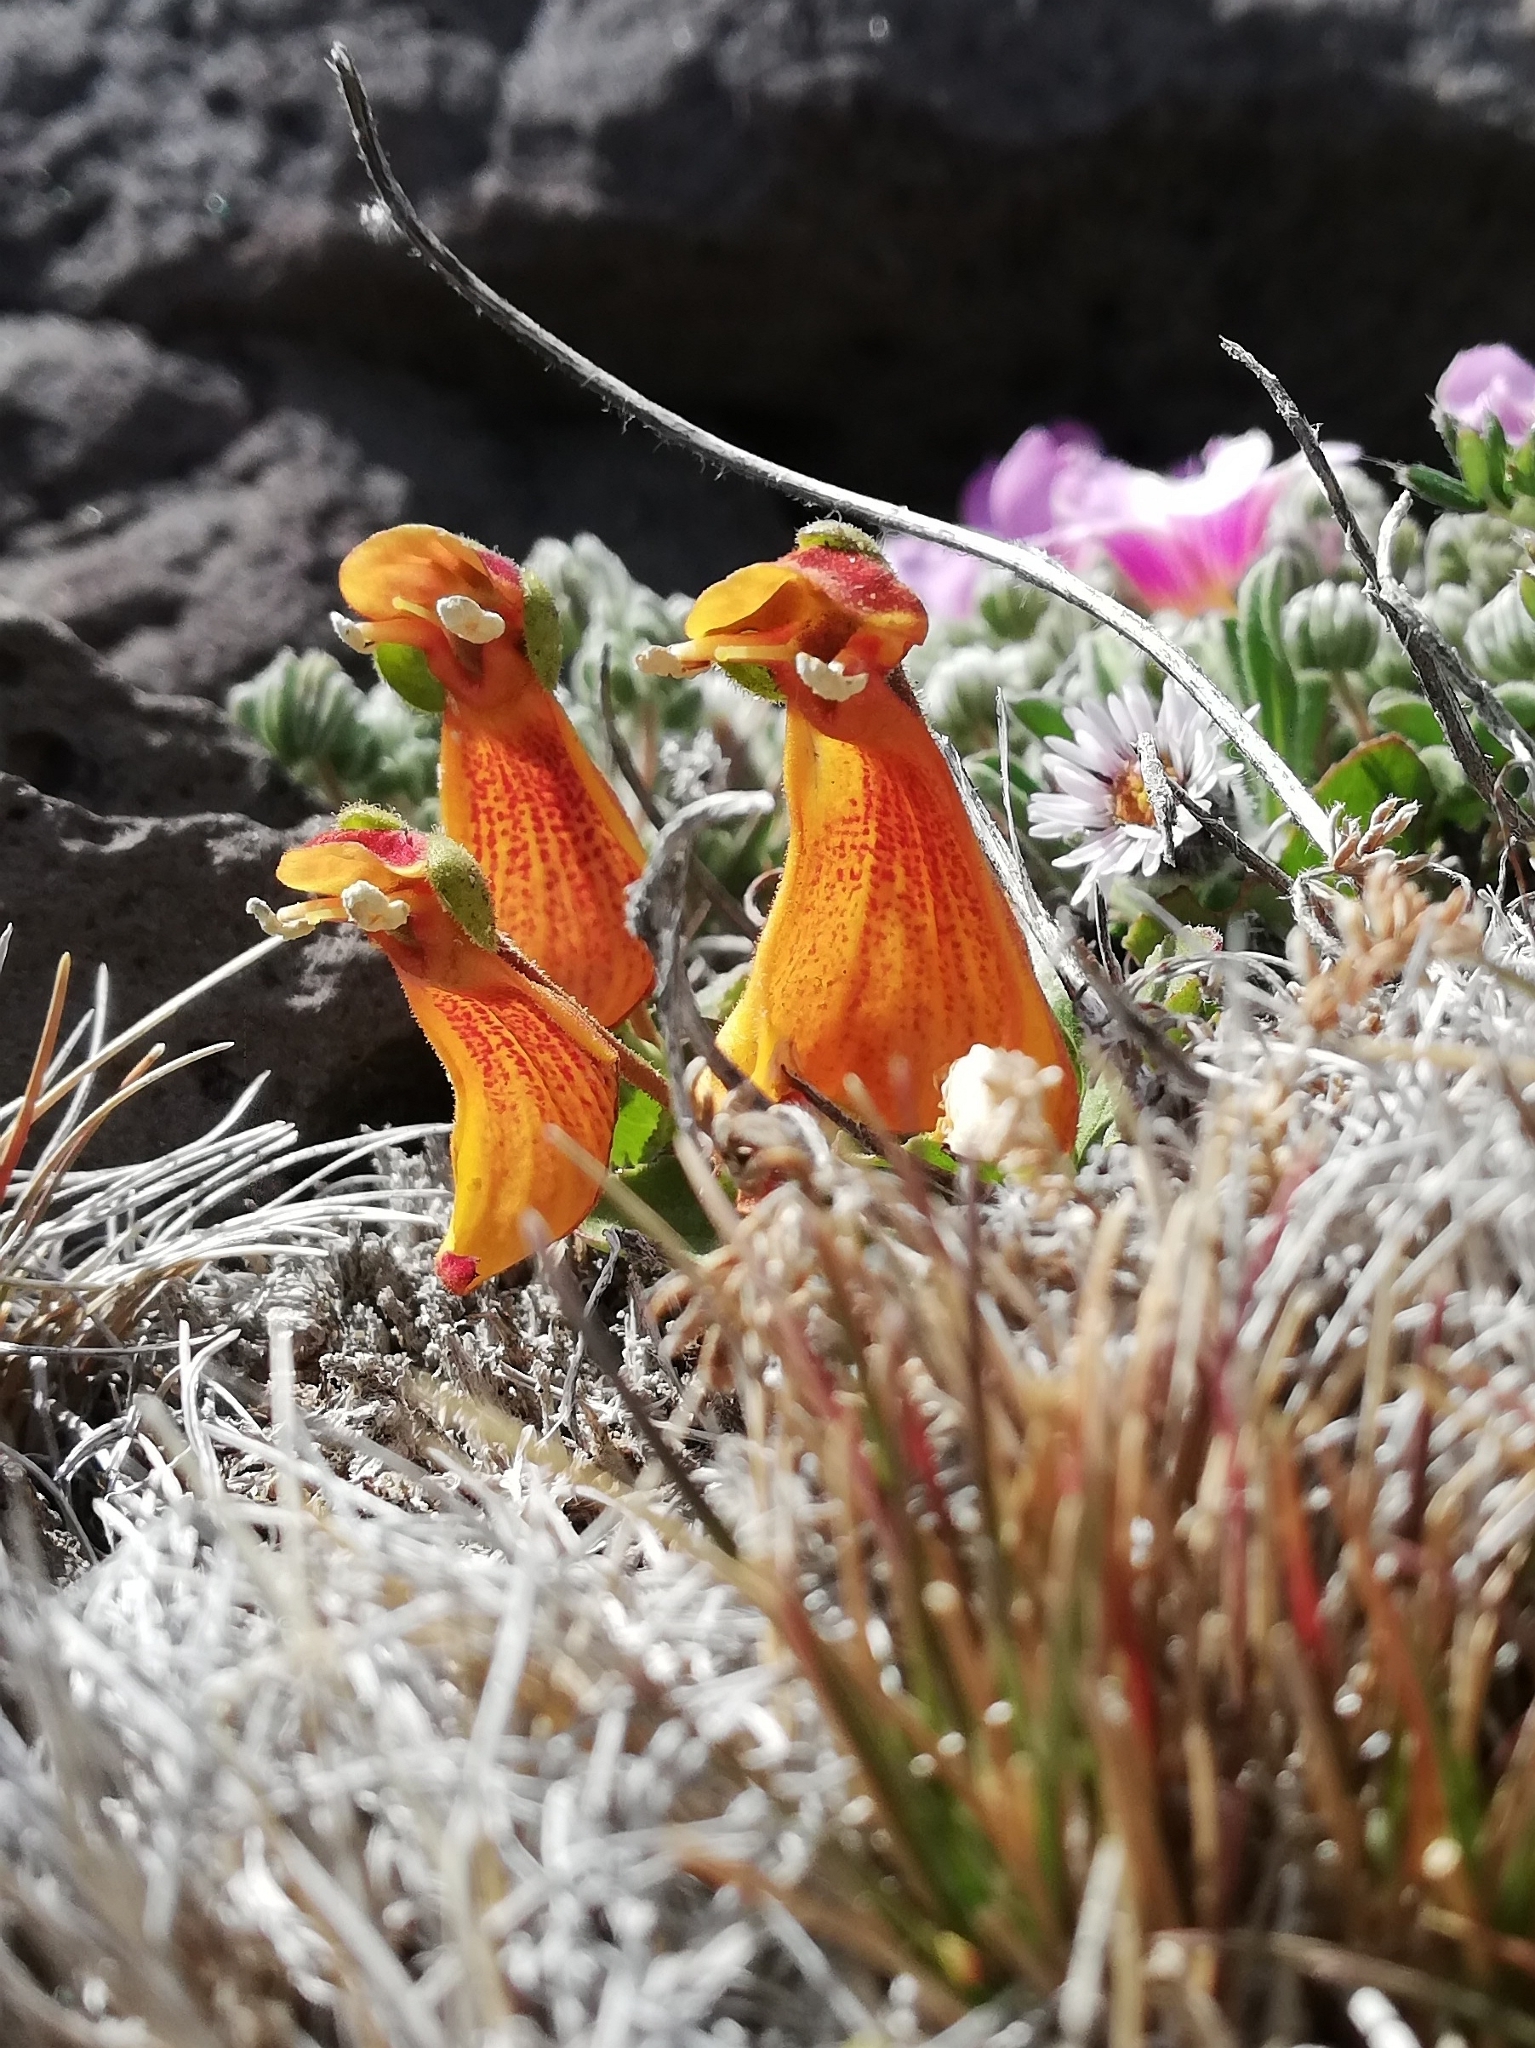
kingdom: Plantae
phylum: Tracheophyta
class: Magnoliopsida
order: Lamiales
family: Calceolariaceae
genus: Calceolaria
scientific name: Calceolaria uniflora
